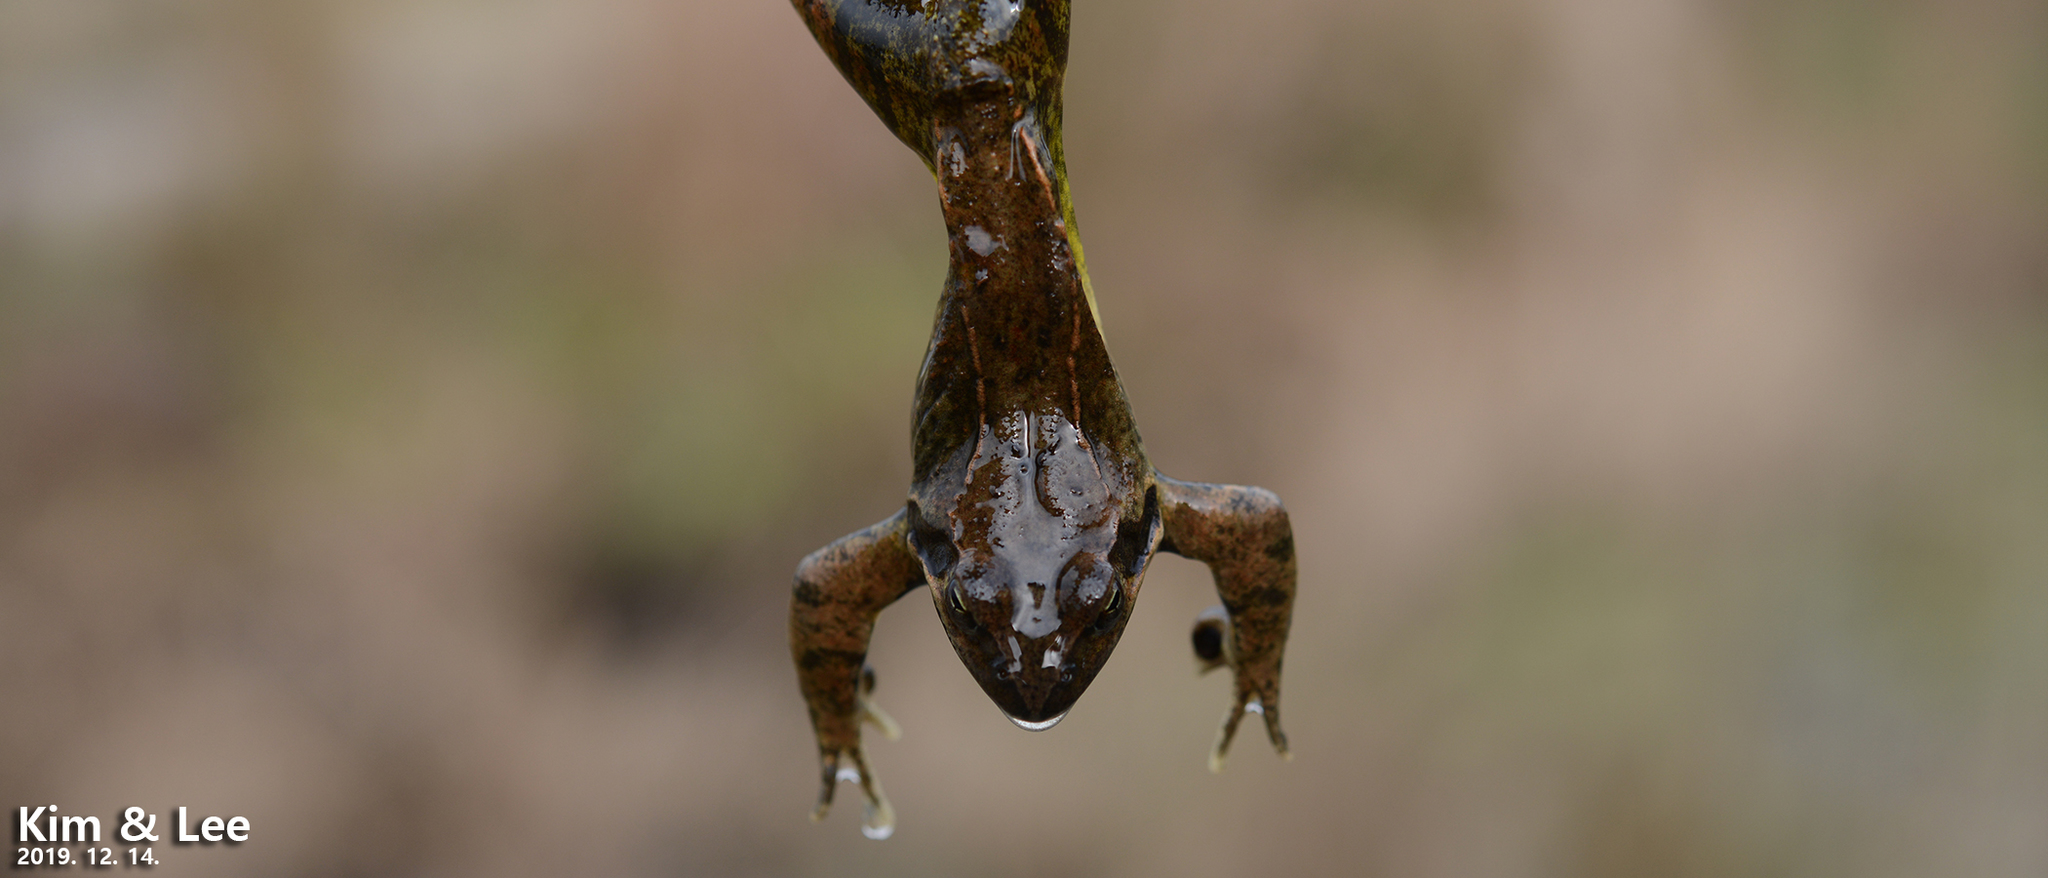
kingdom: Animalia
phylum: Chordata
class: Amphibia
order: Anura
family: Ranidae
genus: Rana
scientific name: Rana uenoi
